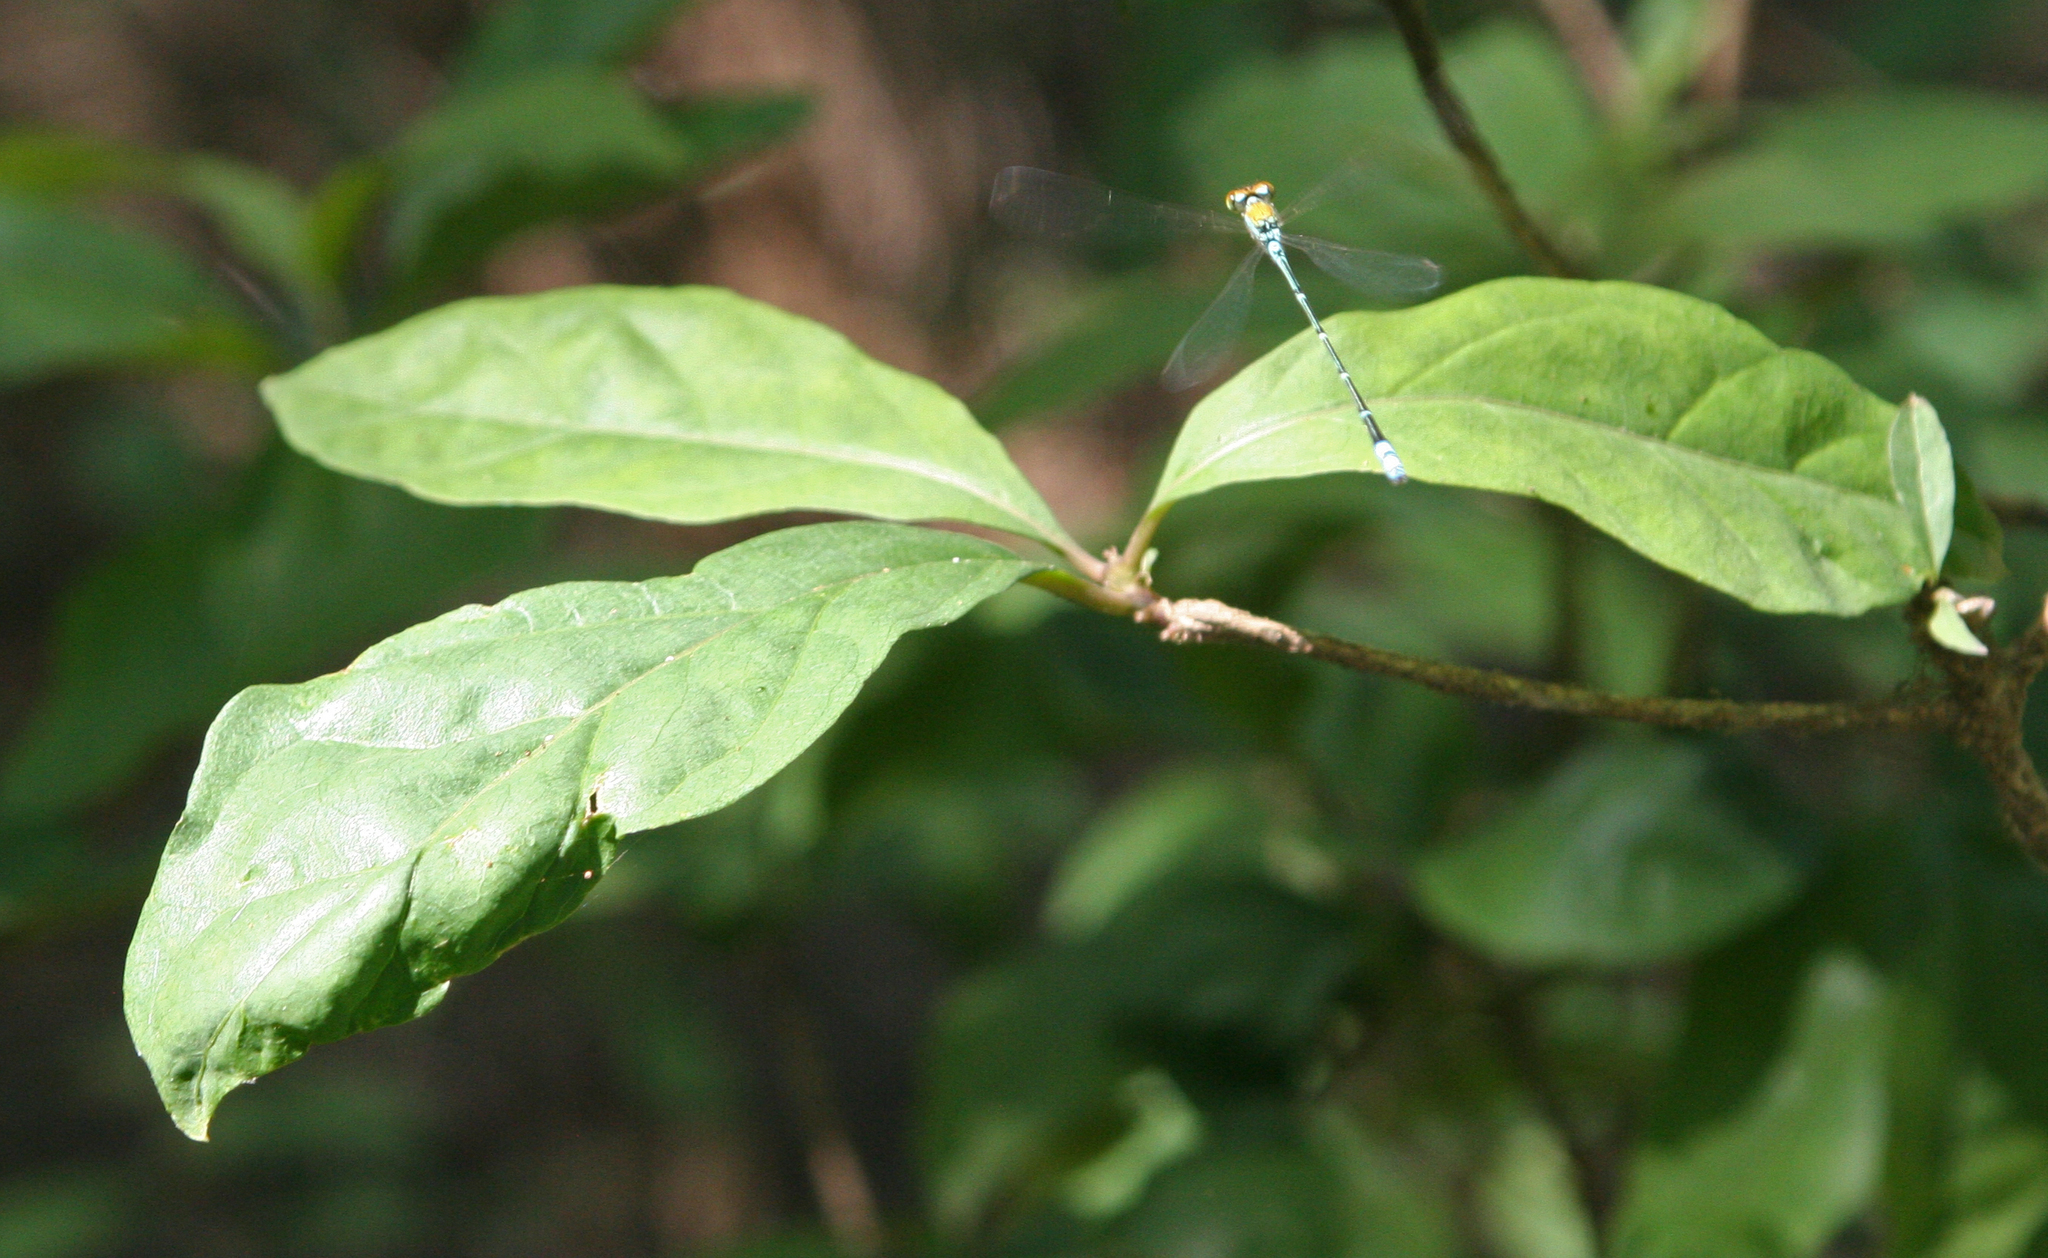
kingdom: Animalia
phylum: Arthropoda
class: Insecta
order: Odonata
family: Coenagrionidae
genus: Pseudagrion
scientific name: Pseudagrion rubriceps
